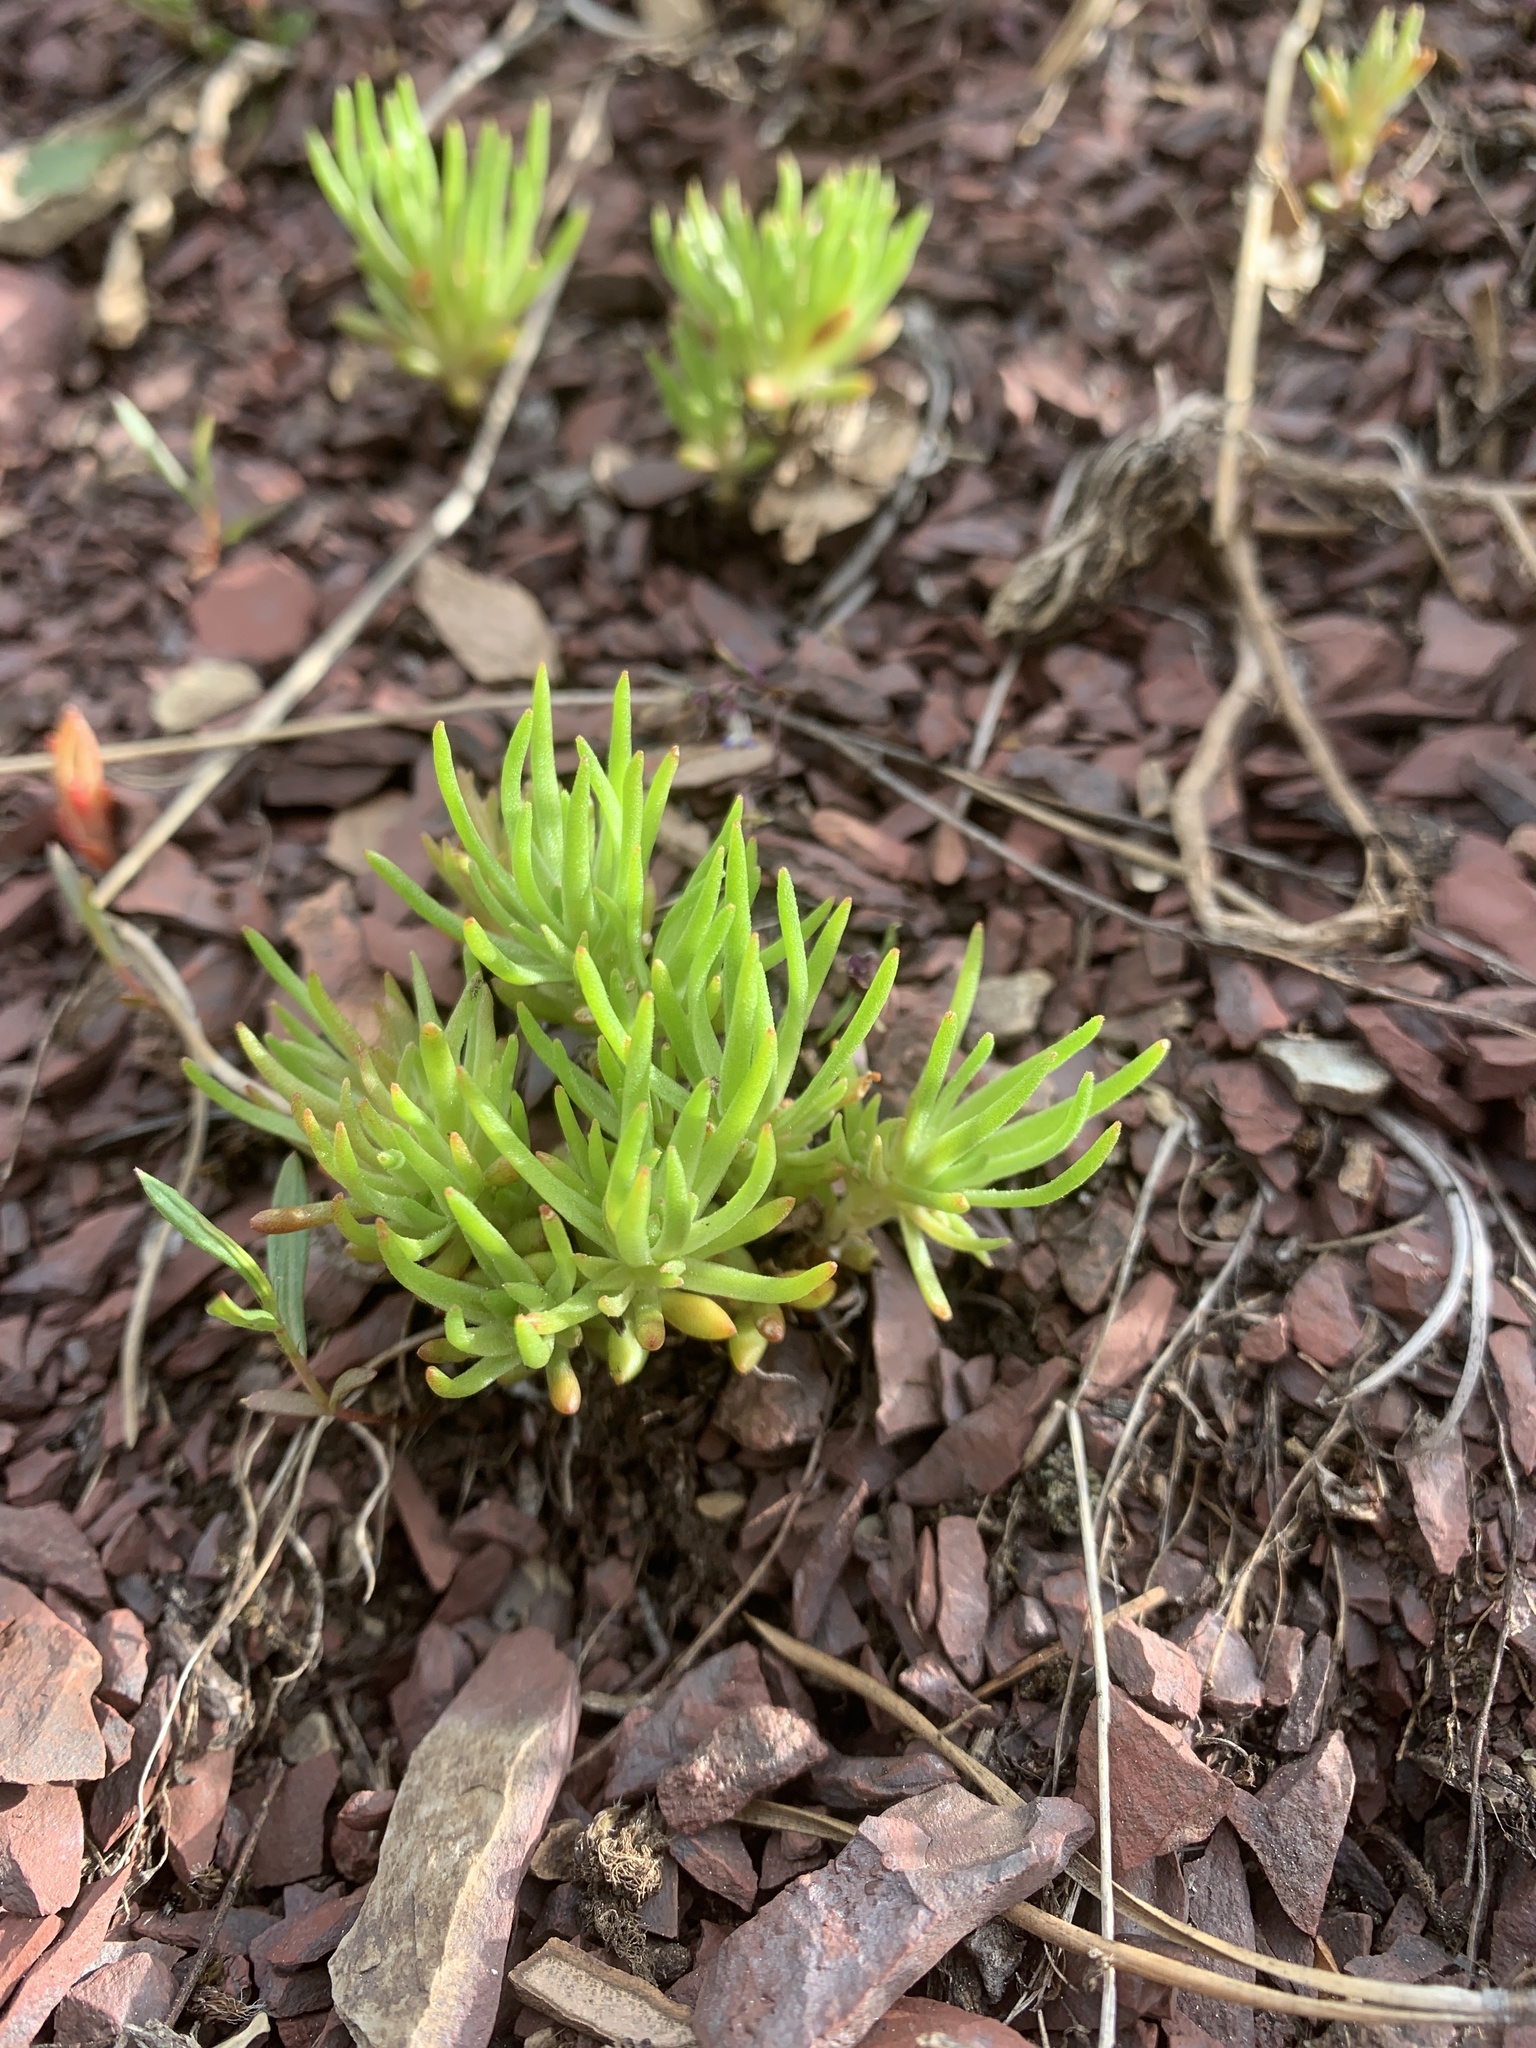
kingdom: Plantae
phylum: Tracheophyta
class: Magnoliopsida
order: Saxifragales
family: Crassulaceae
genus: Sedum
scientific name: Sedum stenopetalum
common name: Narrow-petaled stonecrop
